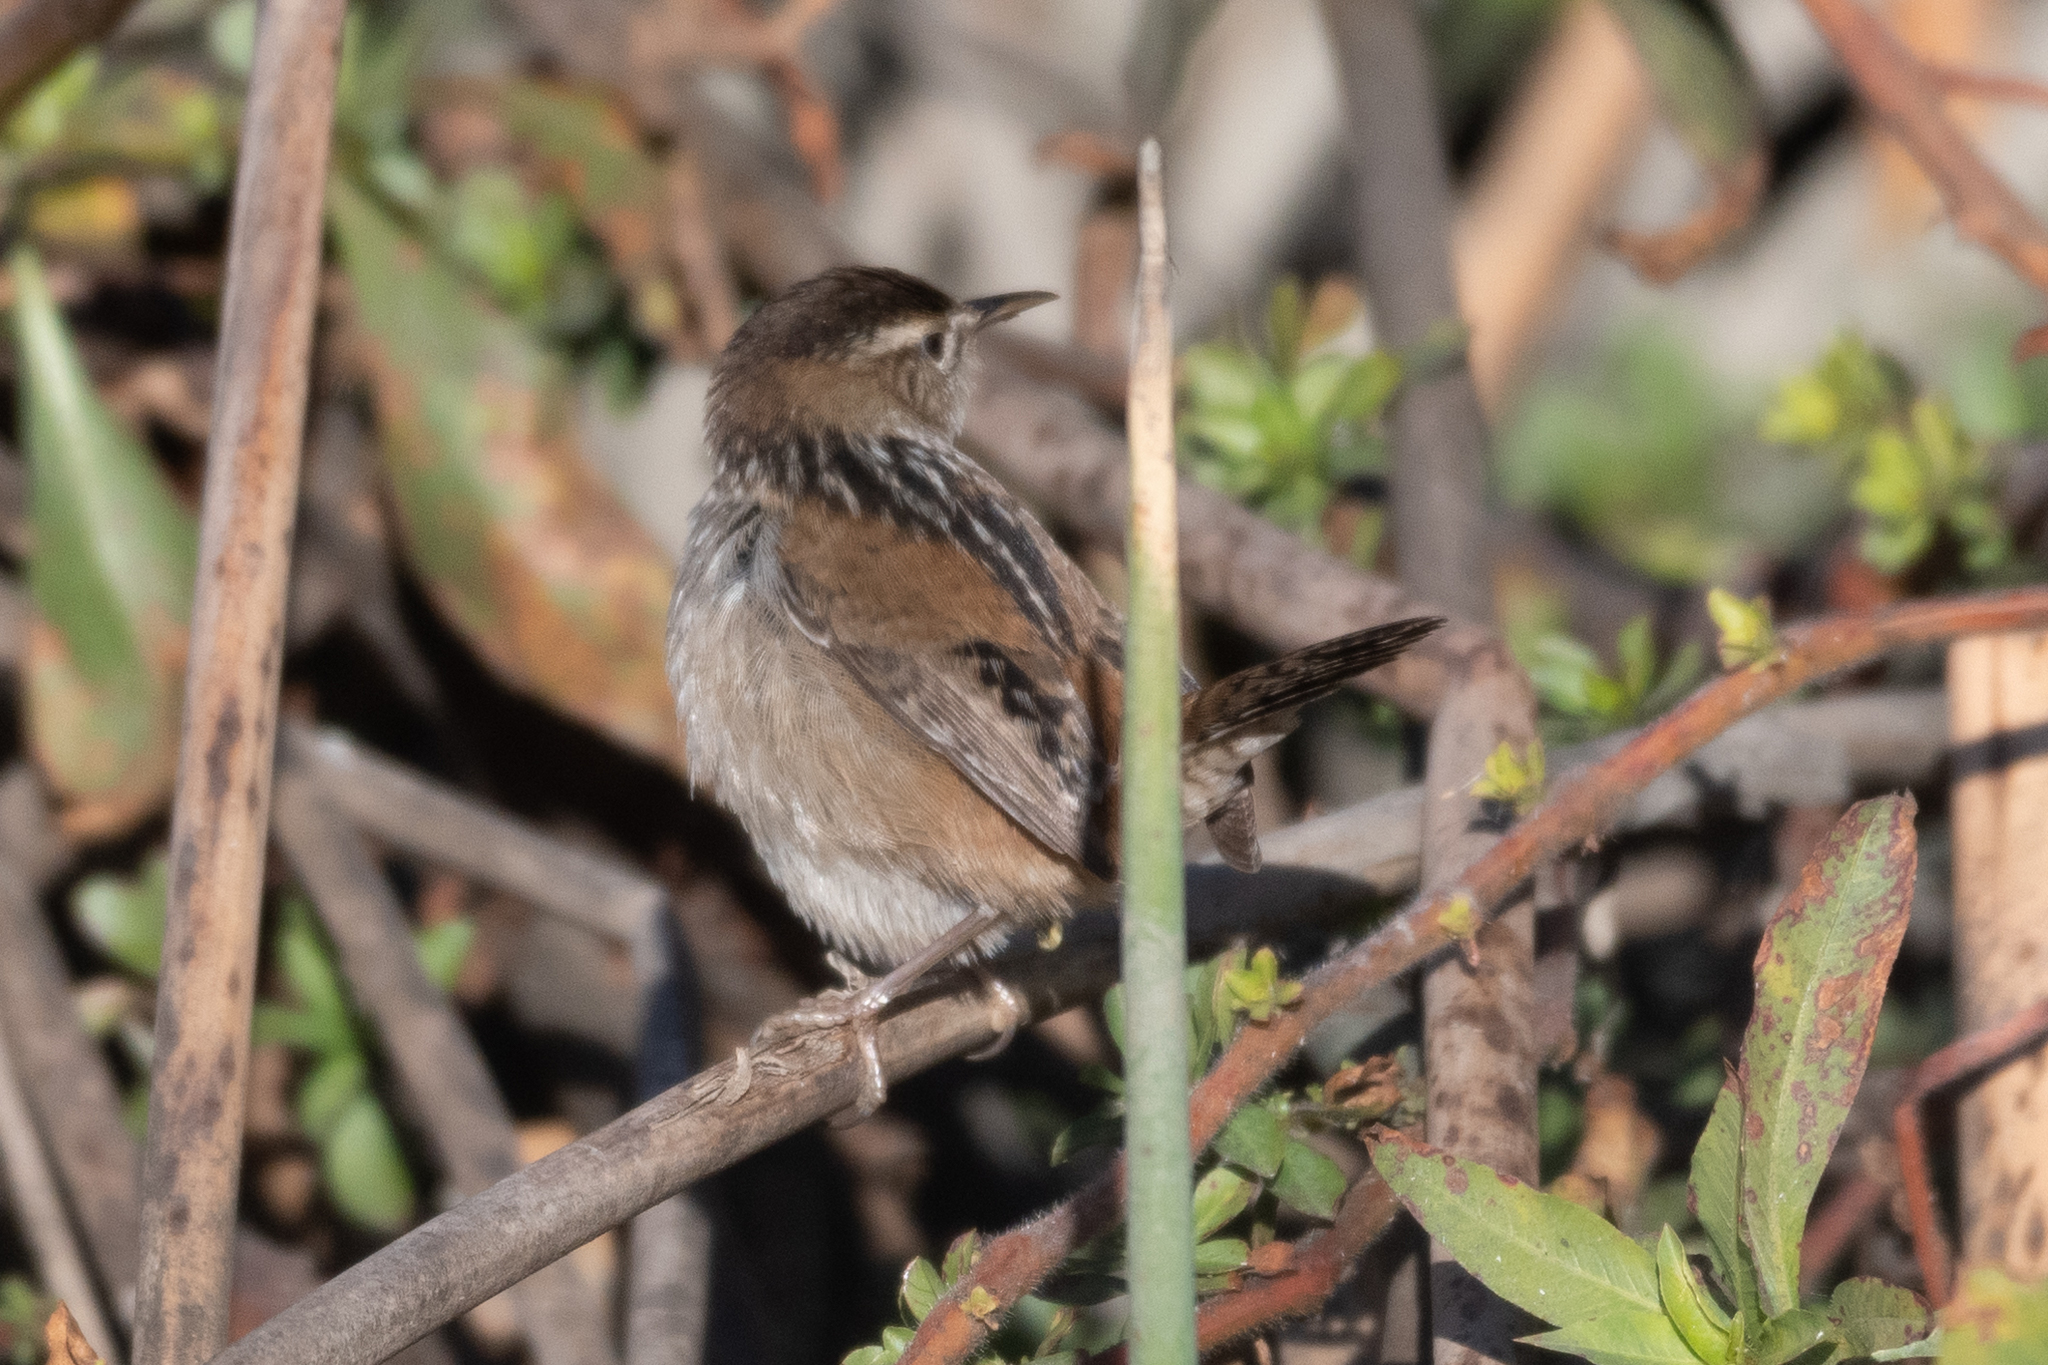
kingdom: Animalia
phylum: Chordata
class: Aves
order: Passeriformes
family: Troglodytidae
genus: Cistothorus
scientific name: Cistothorus palustris
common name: Marsh wren
